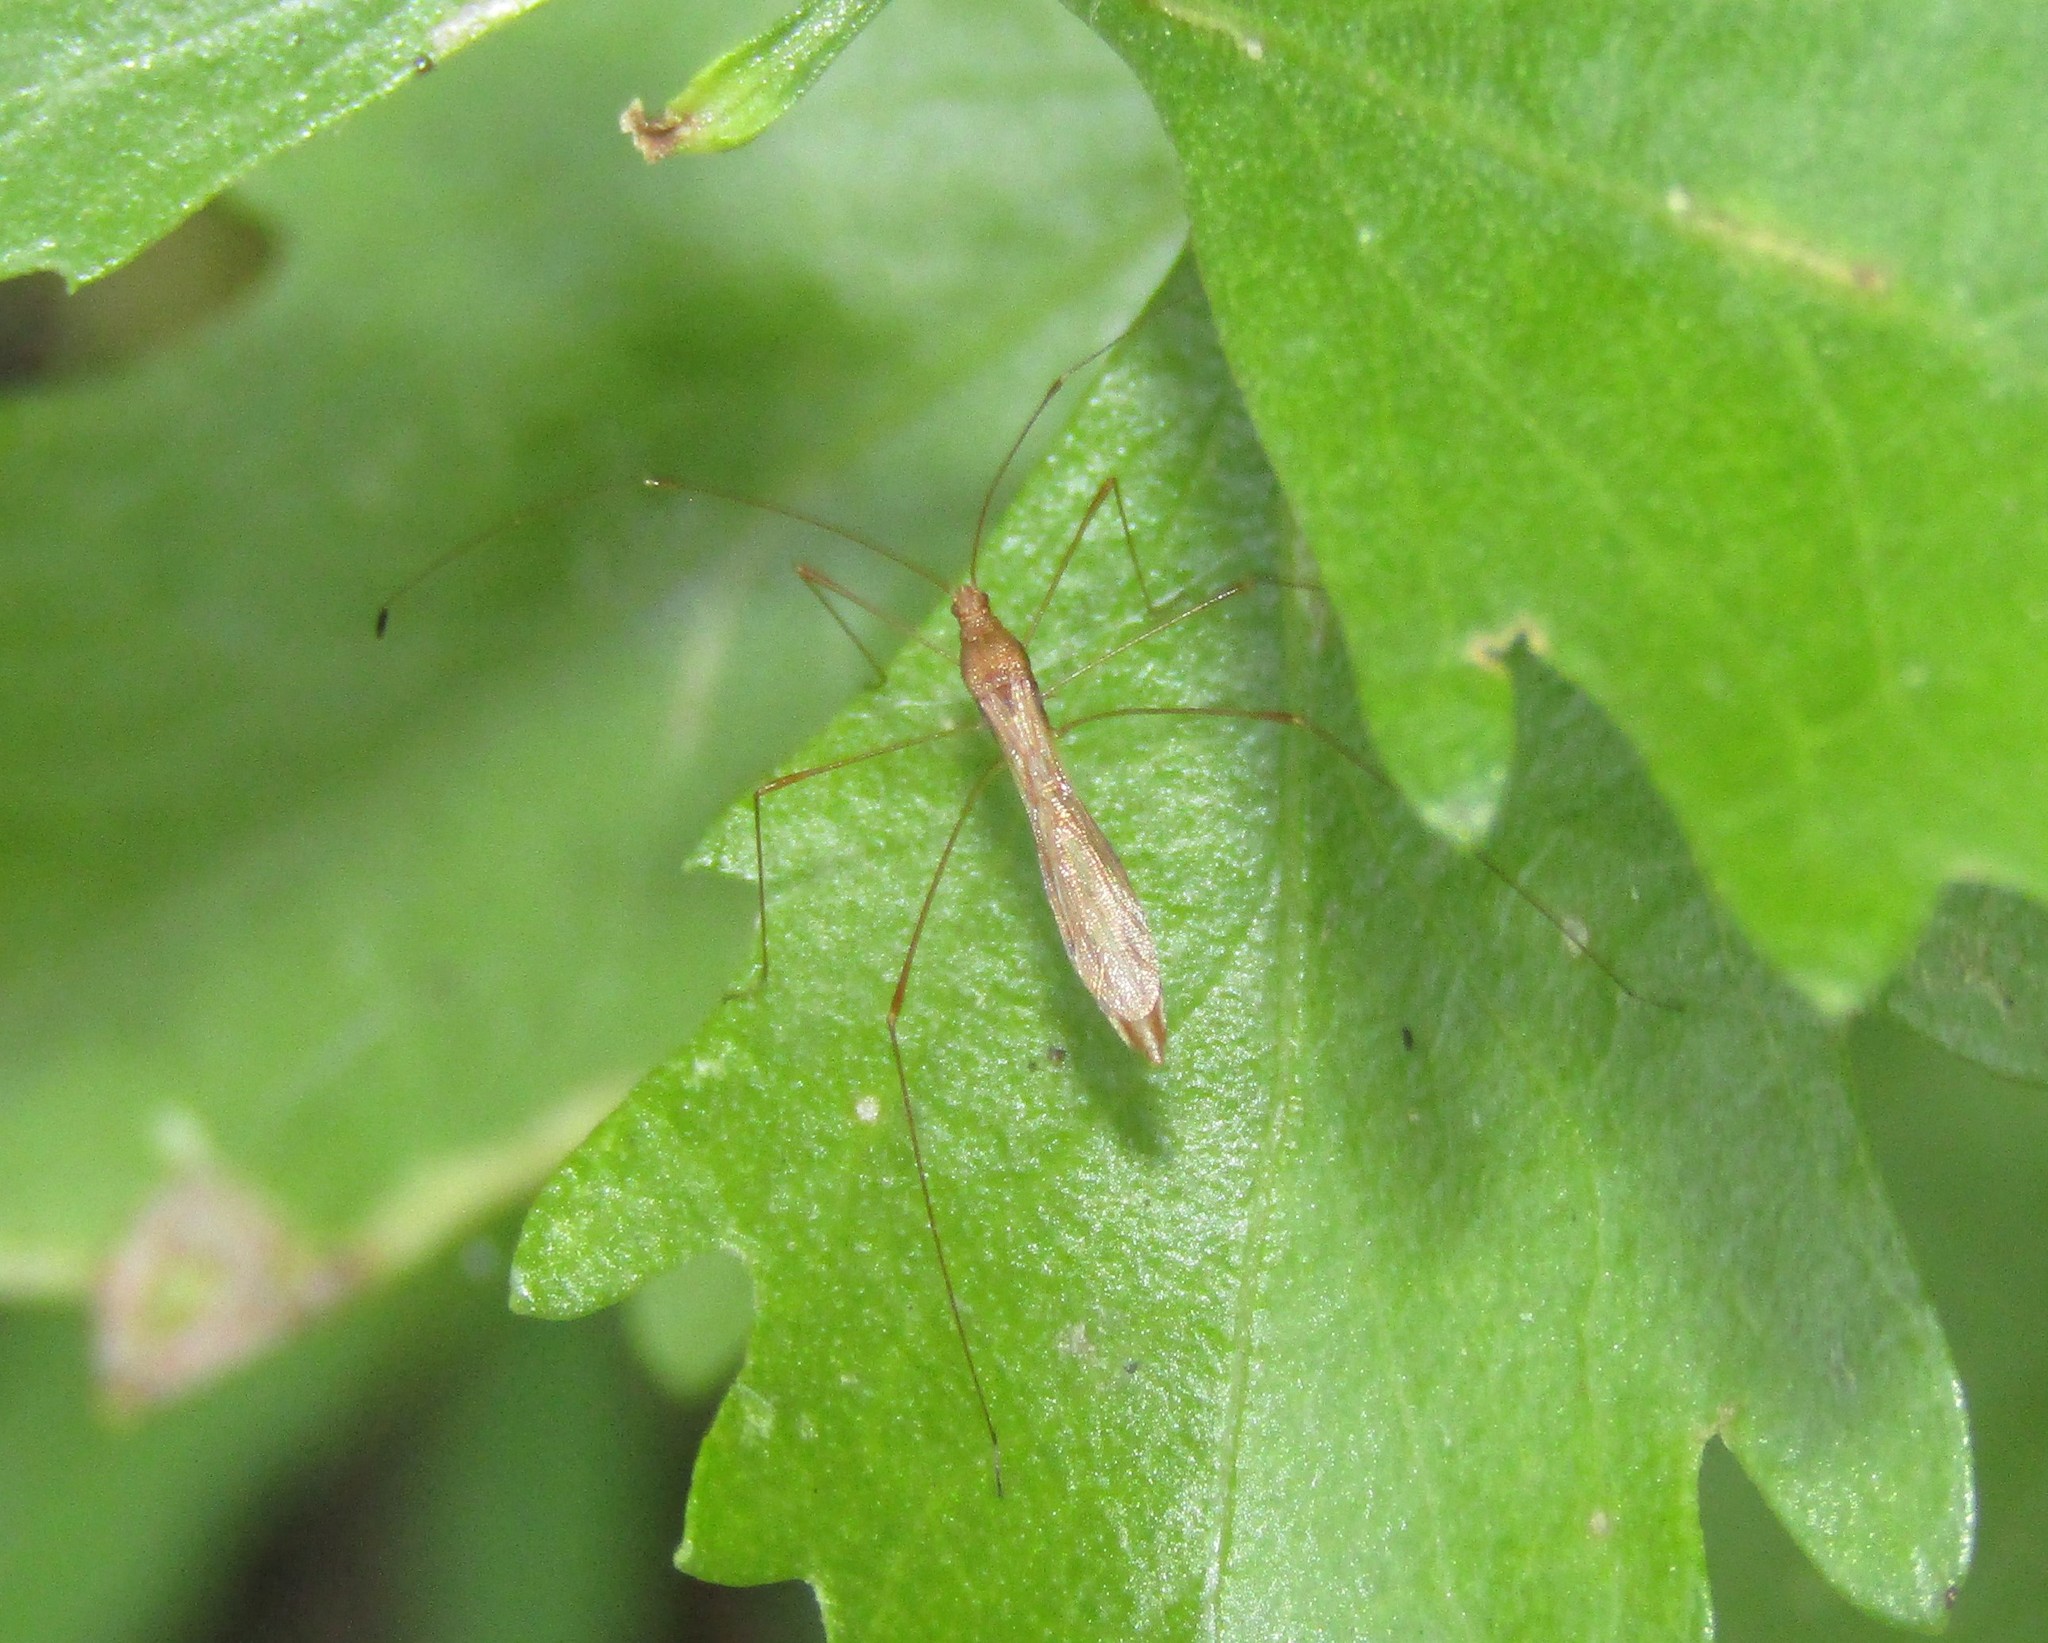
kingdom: Animalia
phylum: Arthropoda
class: Insecta
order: Hemiptera
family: Berytidae
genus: Jalysus
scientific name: Jalysus
